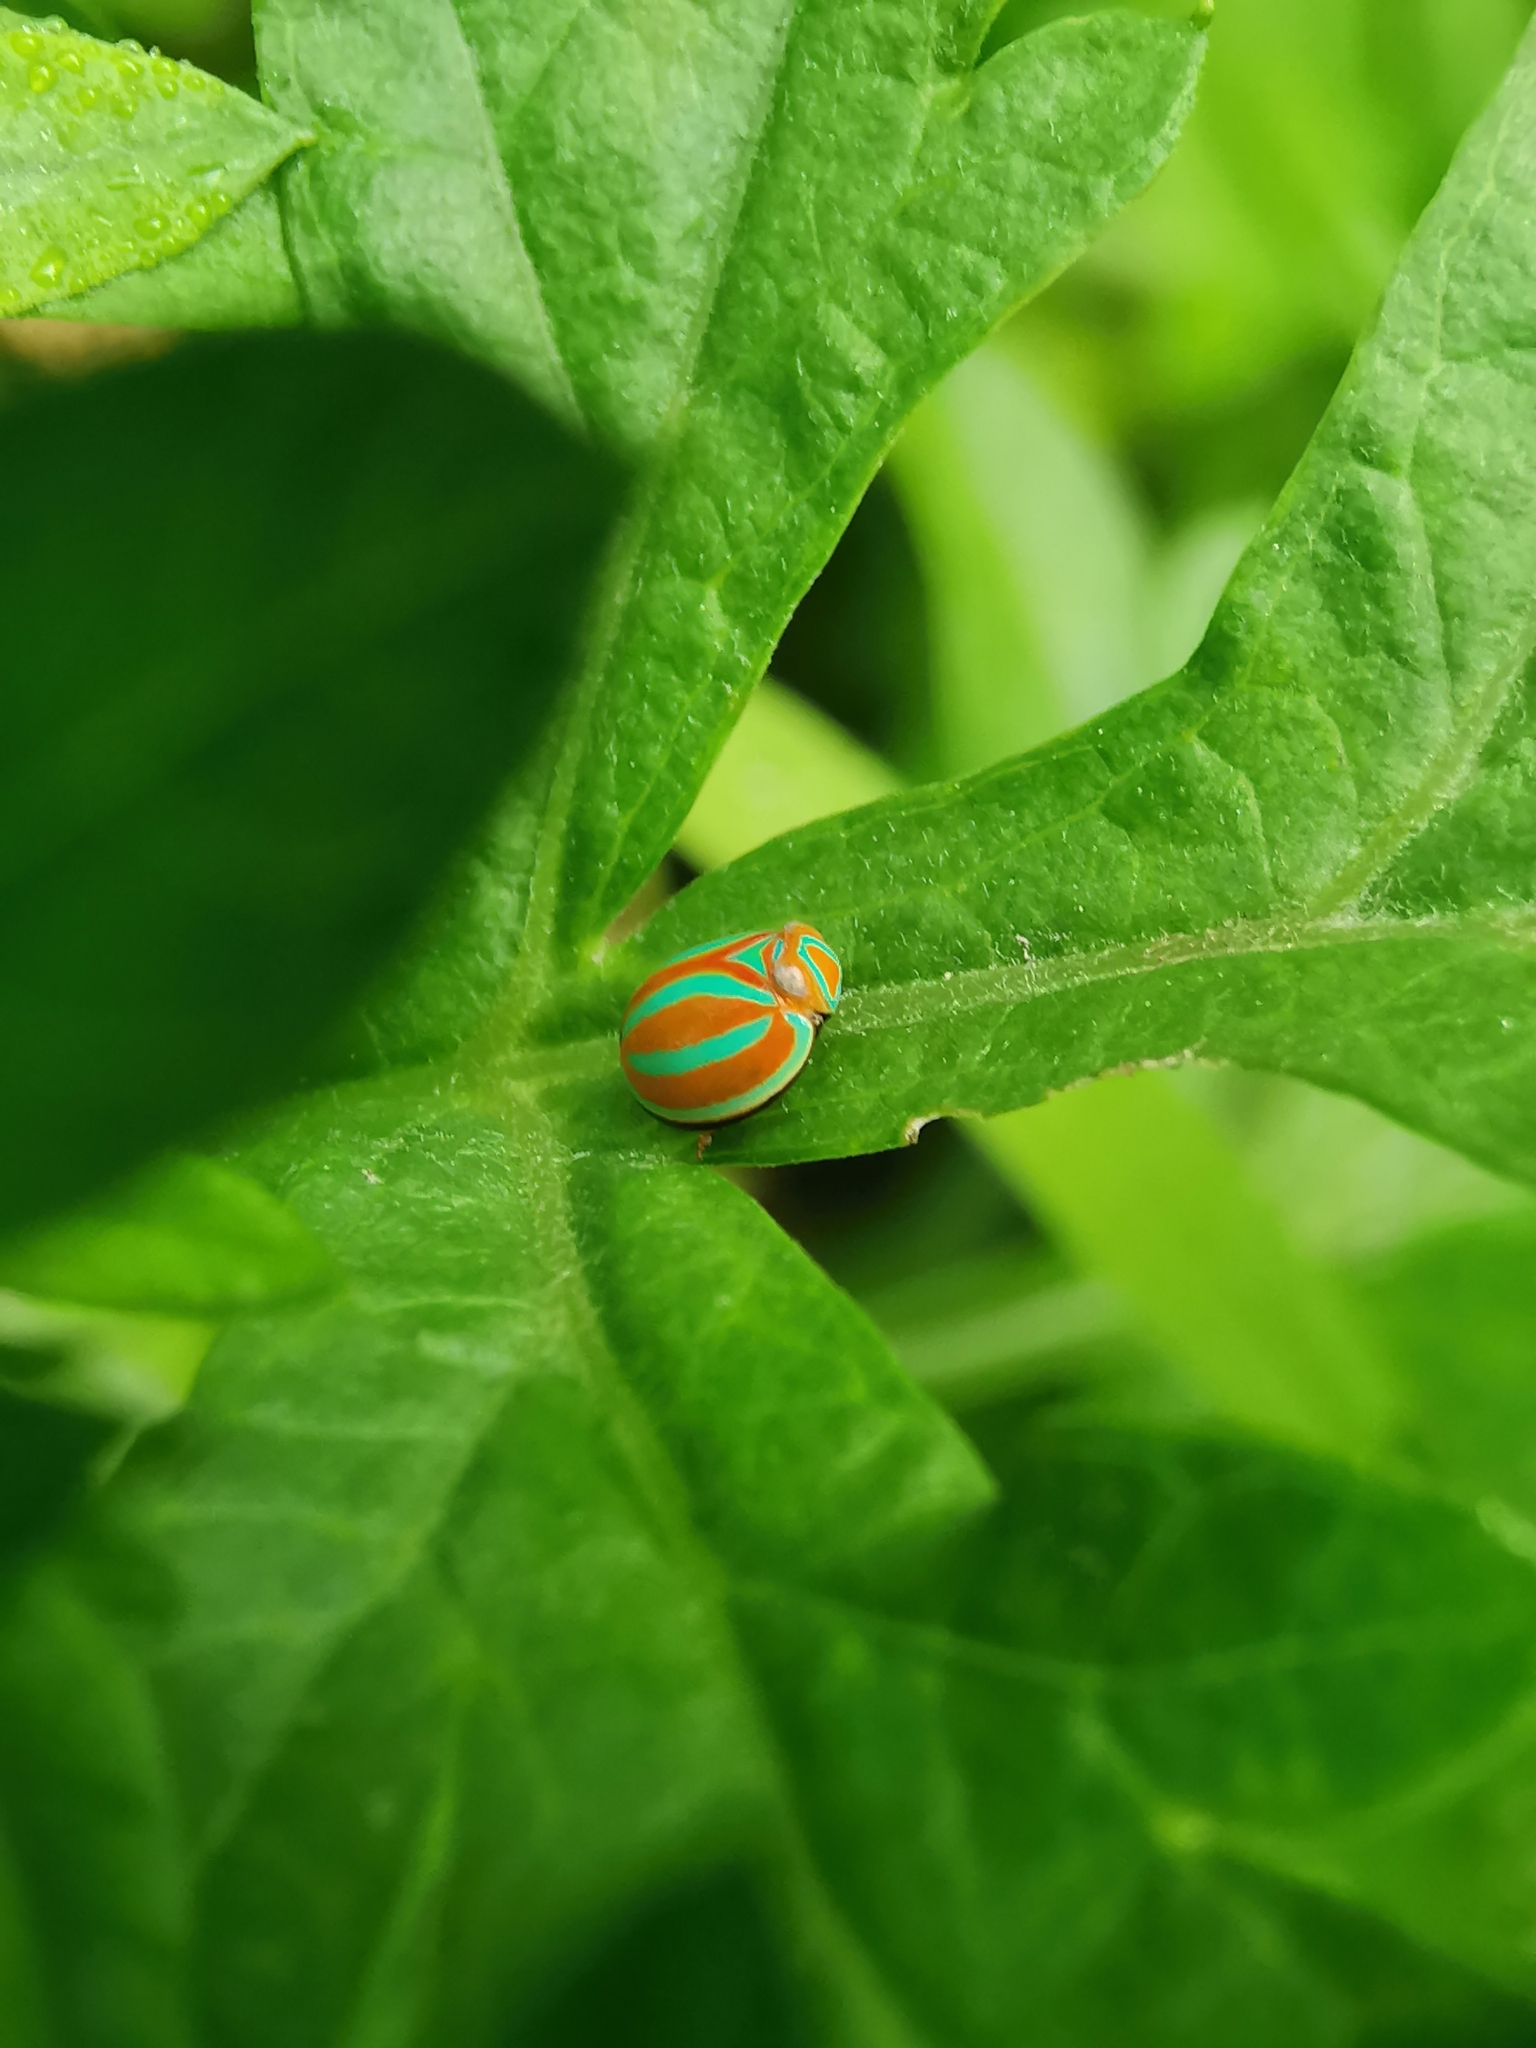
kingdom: Animalia
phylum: Arthropoda
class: Insecta
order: Hemiptera
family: Issidae
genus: Hemisphaerius
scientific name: Hemisphaerius coccinelloides
